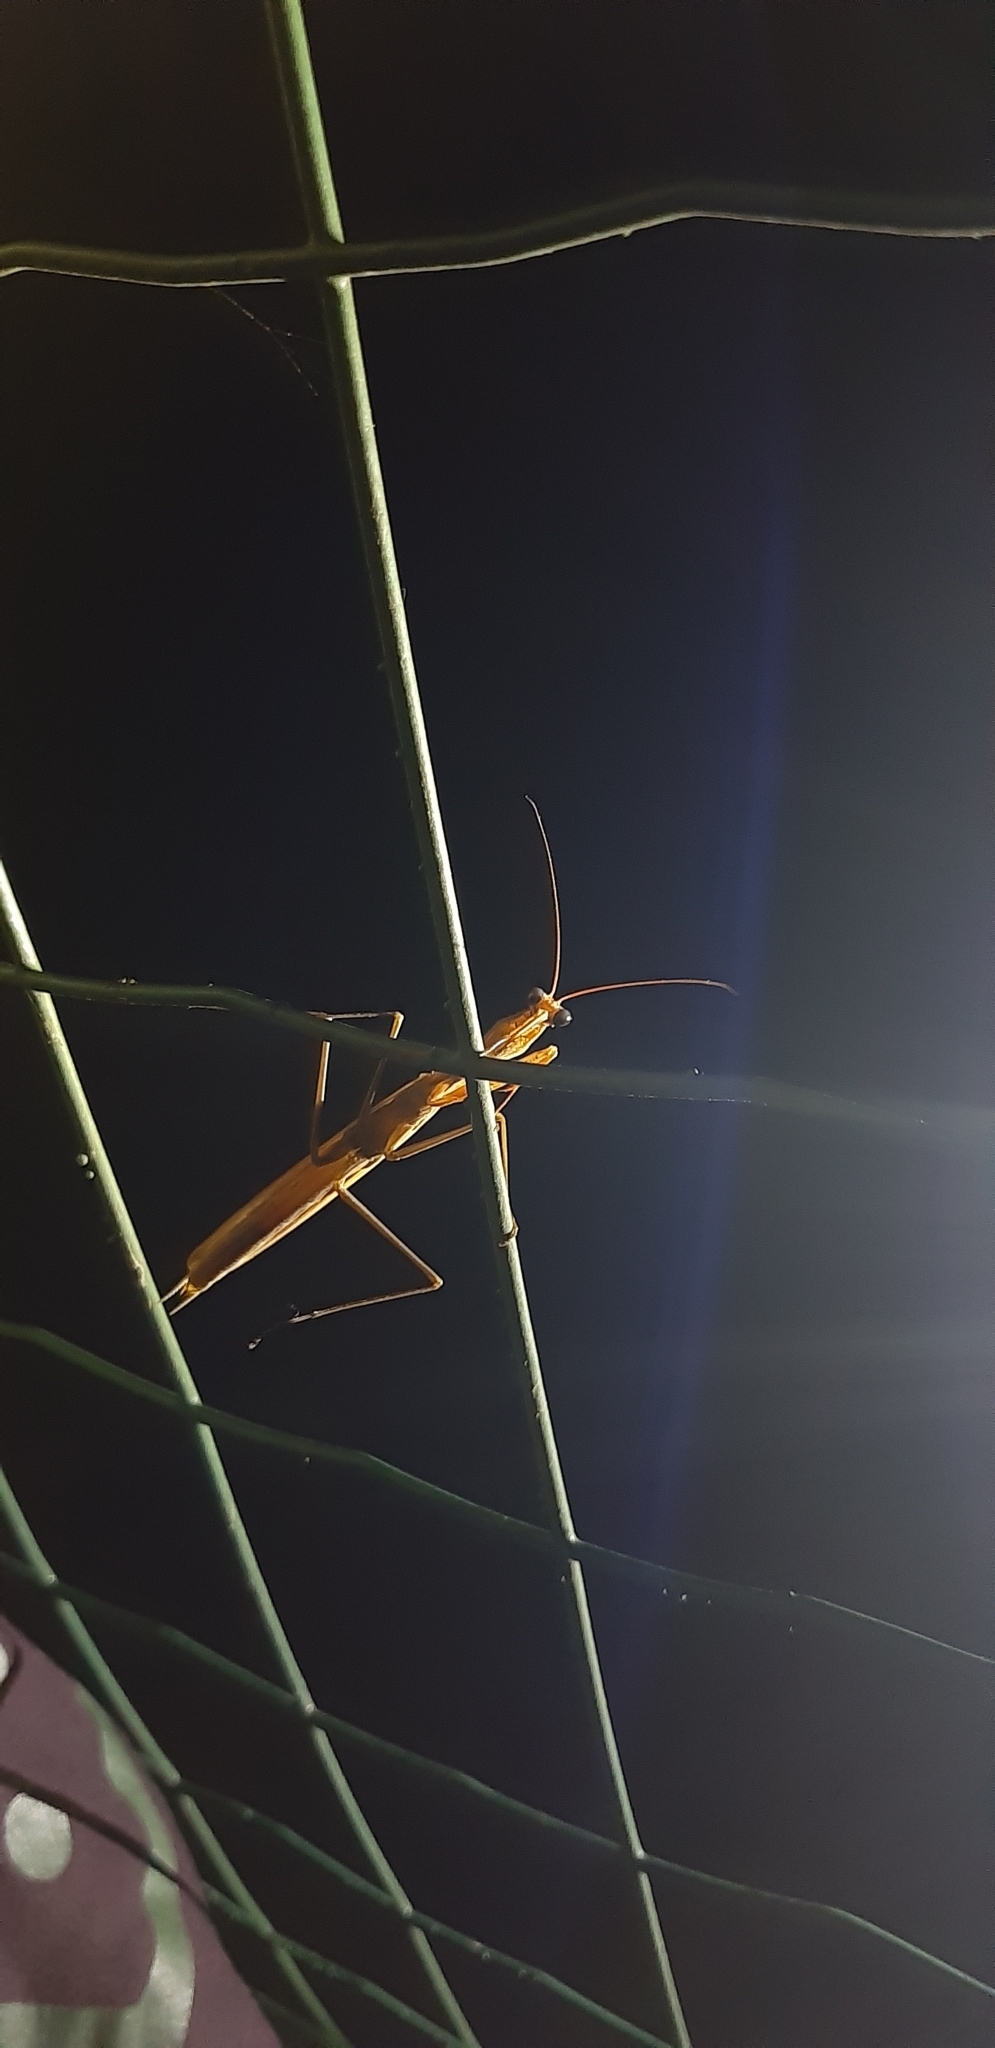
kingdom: Animalia
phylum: Arthropoda
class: Insecta
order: Mantodea
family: Mantidae
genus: Mantis
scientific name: Mantis religiosa
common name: Praying mantis
